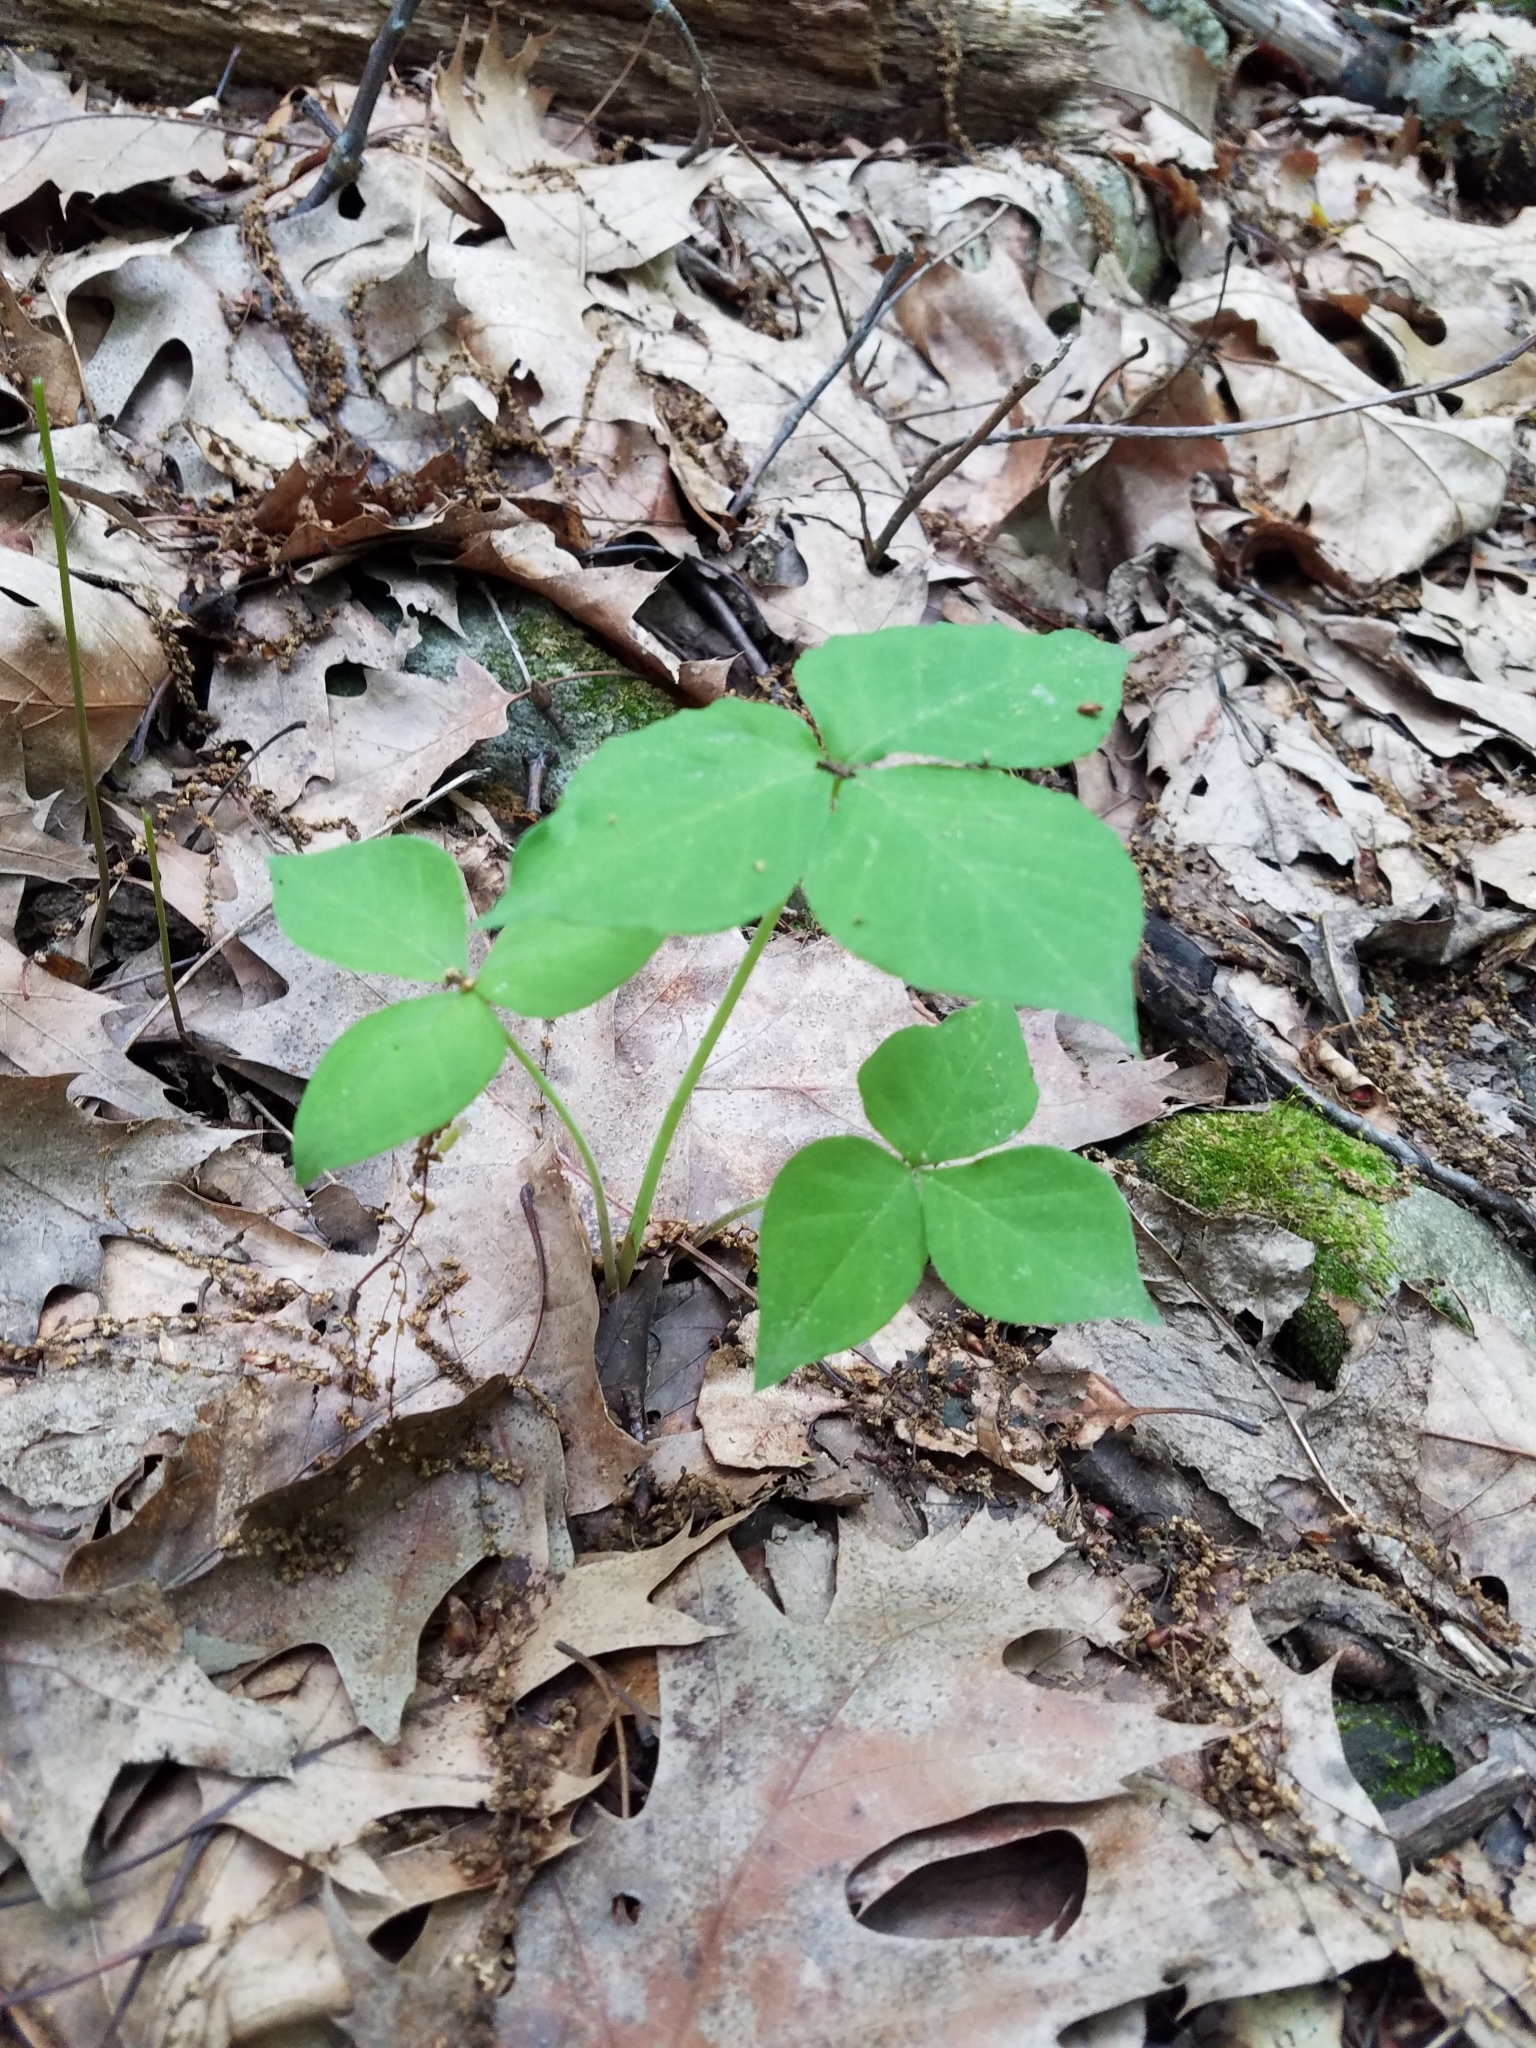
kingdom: Plantae
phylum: Tracheophyta
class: Liliopsida
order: Alismatales
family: Araceae
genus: Arisaema
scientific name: Arisaema triphyllum
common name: Jack-in-the-pulpit
